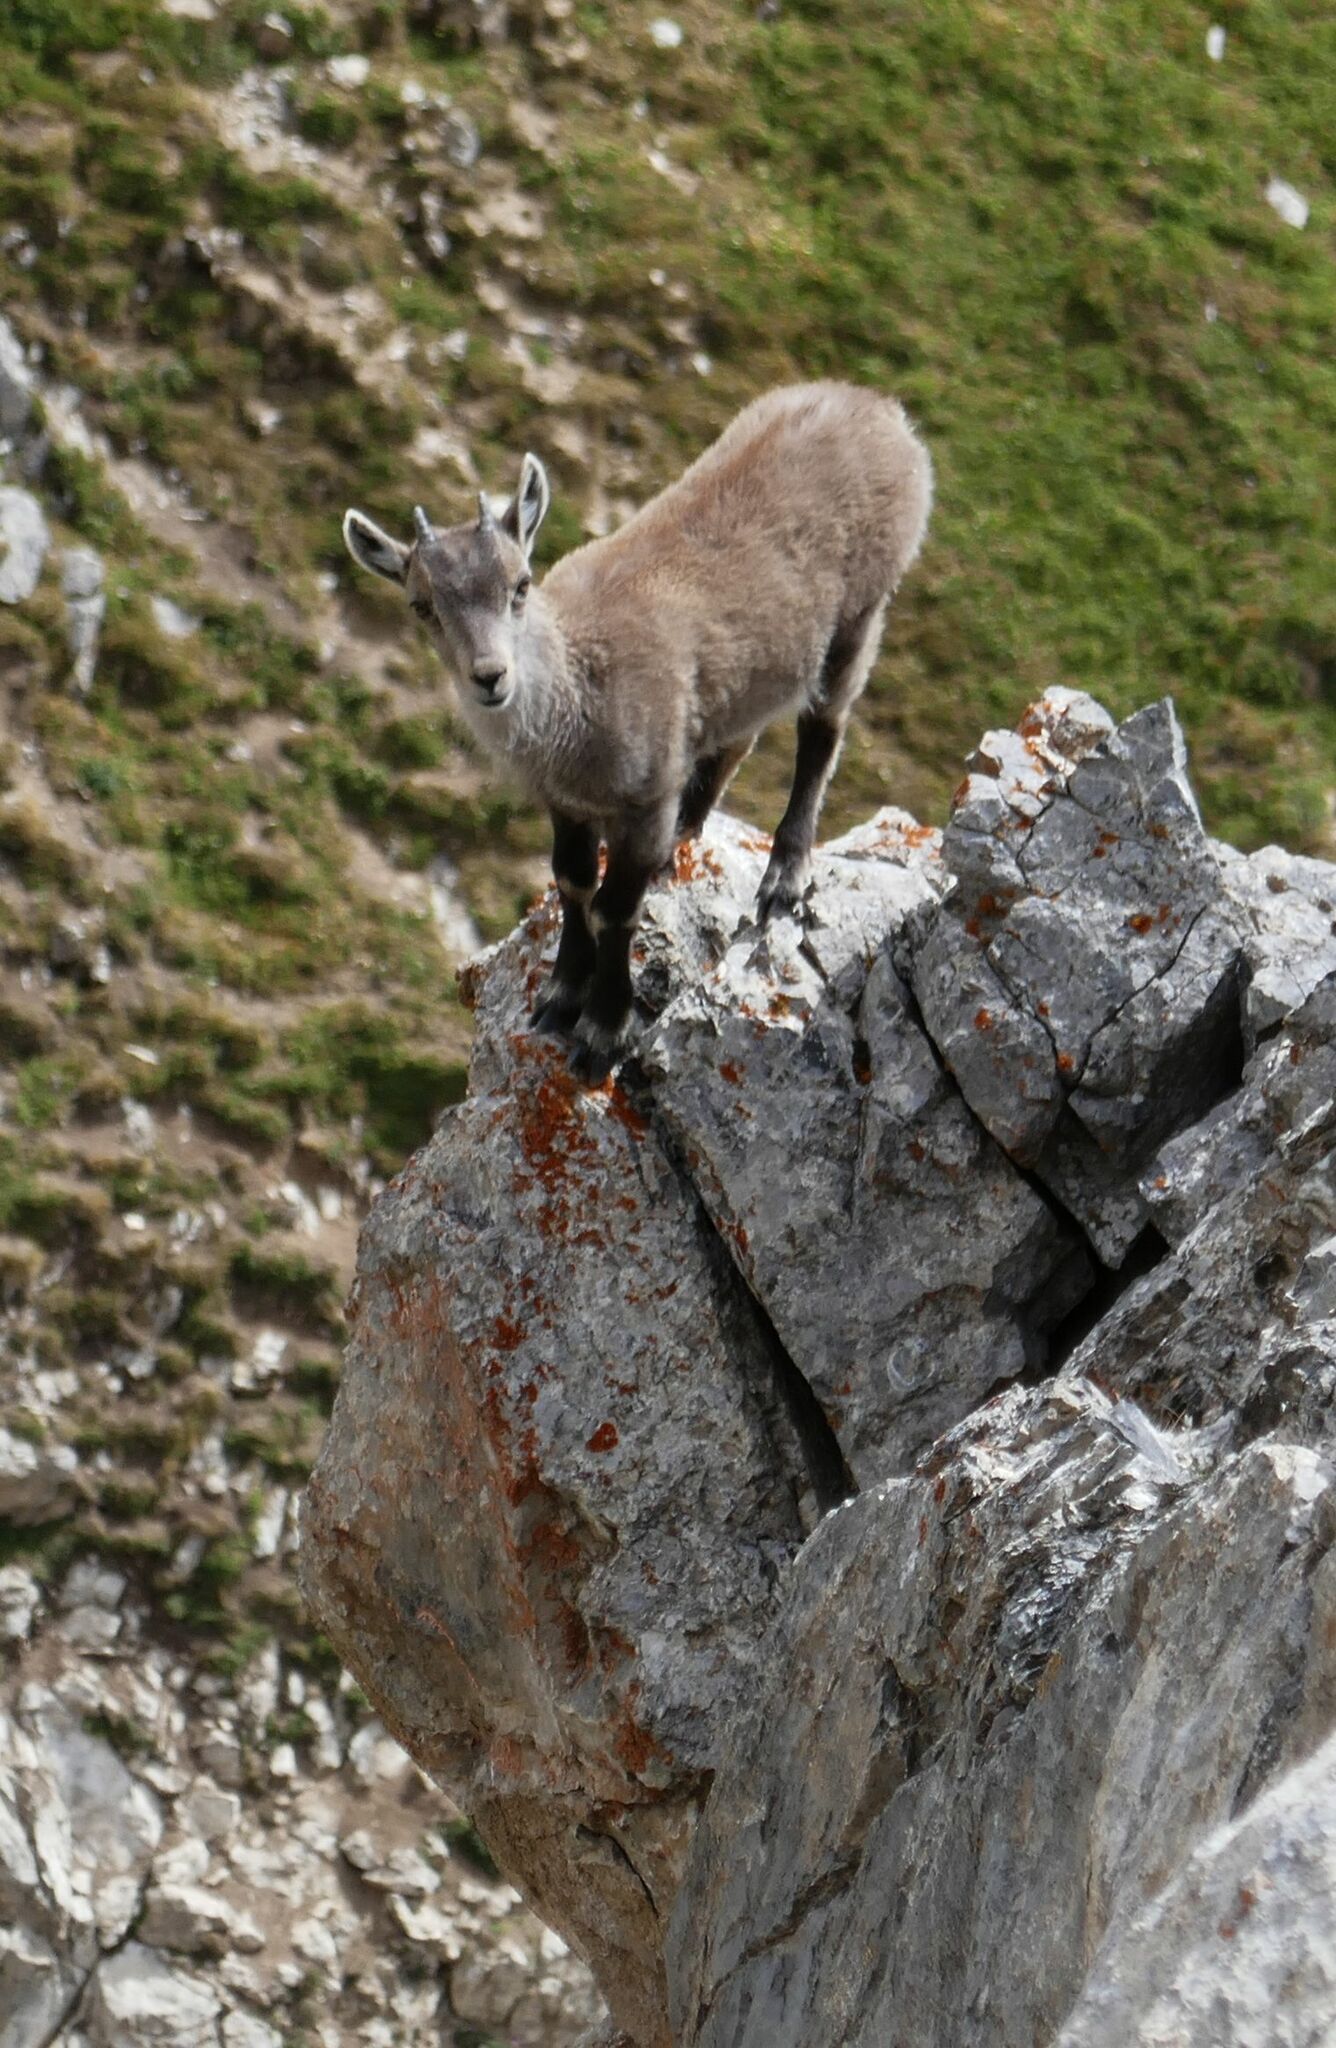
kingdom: Animalia
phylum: Chordata
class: Mammalia
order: Artiodactyla
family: Bovidae
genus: Capra
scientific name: Capra ibex
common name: Alpine ibex
